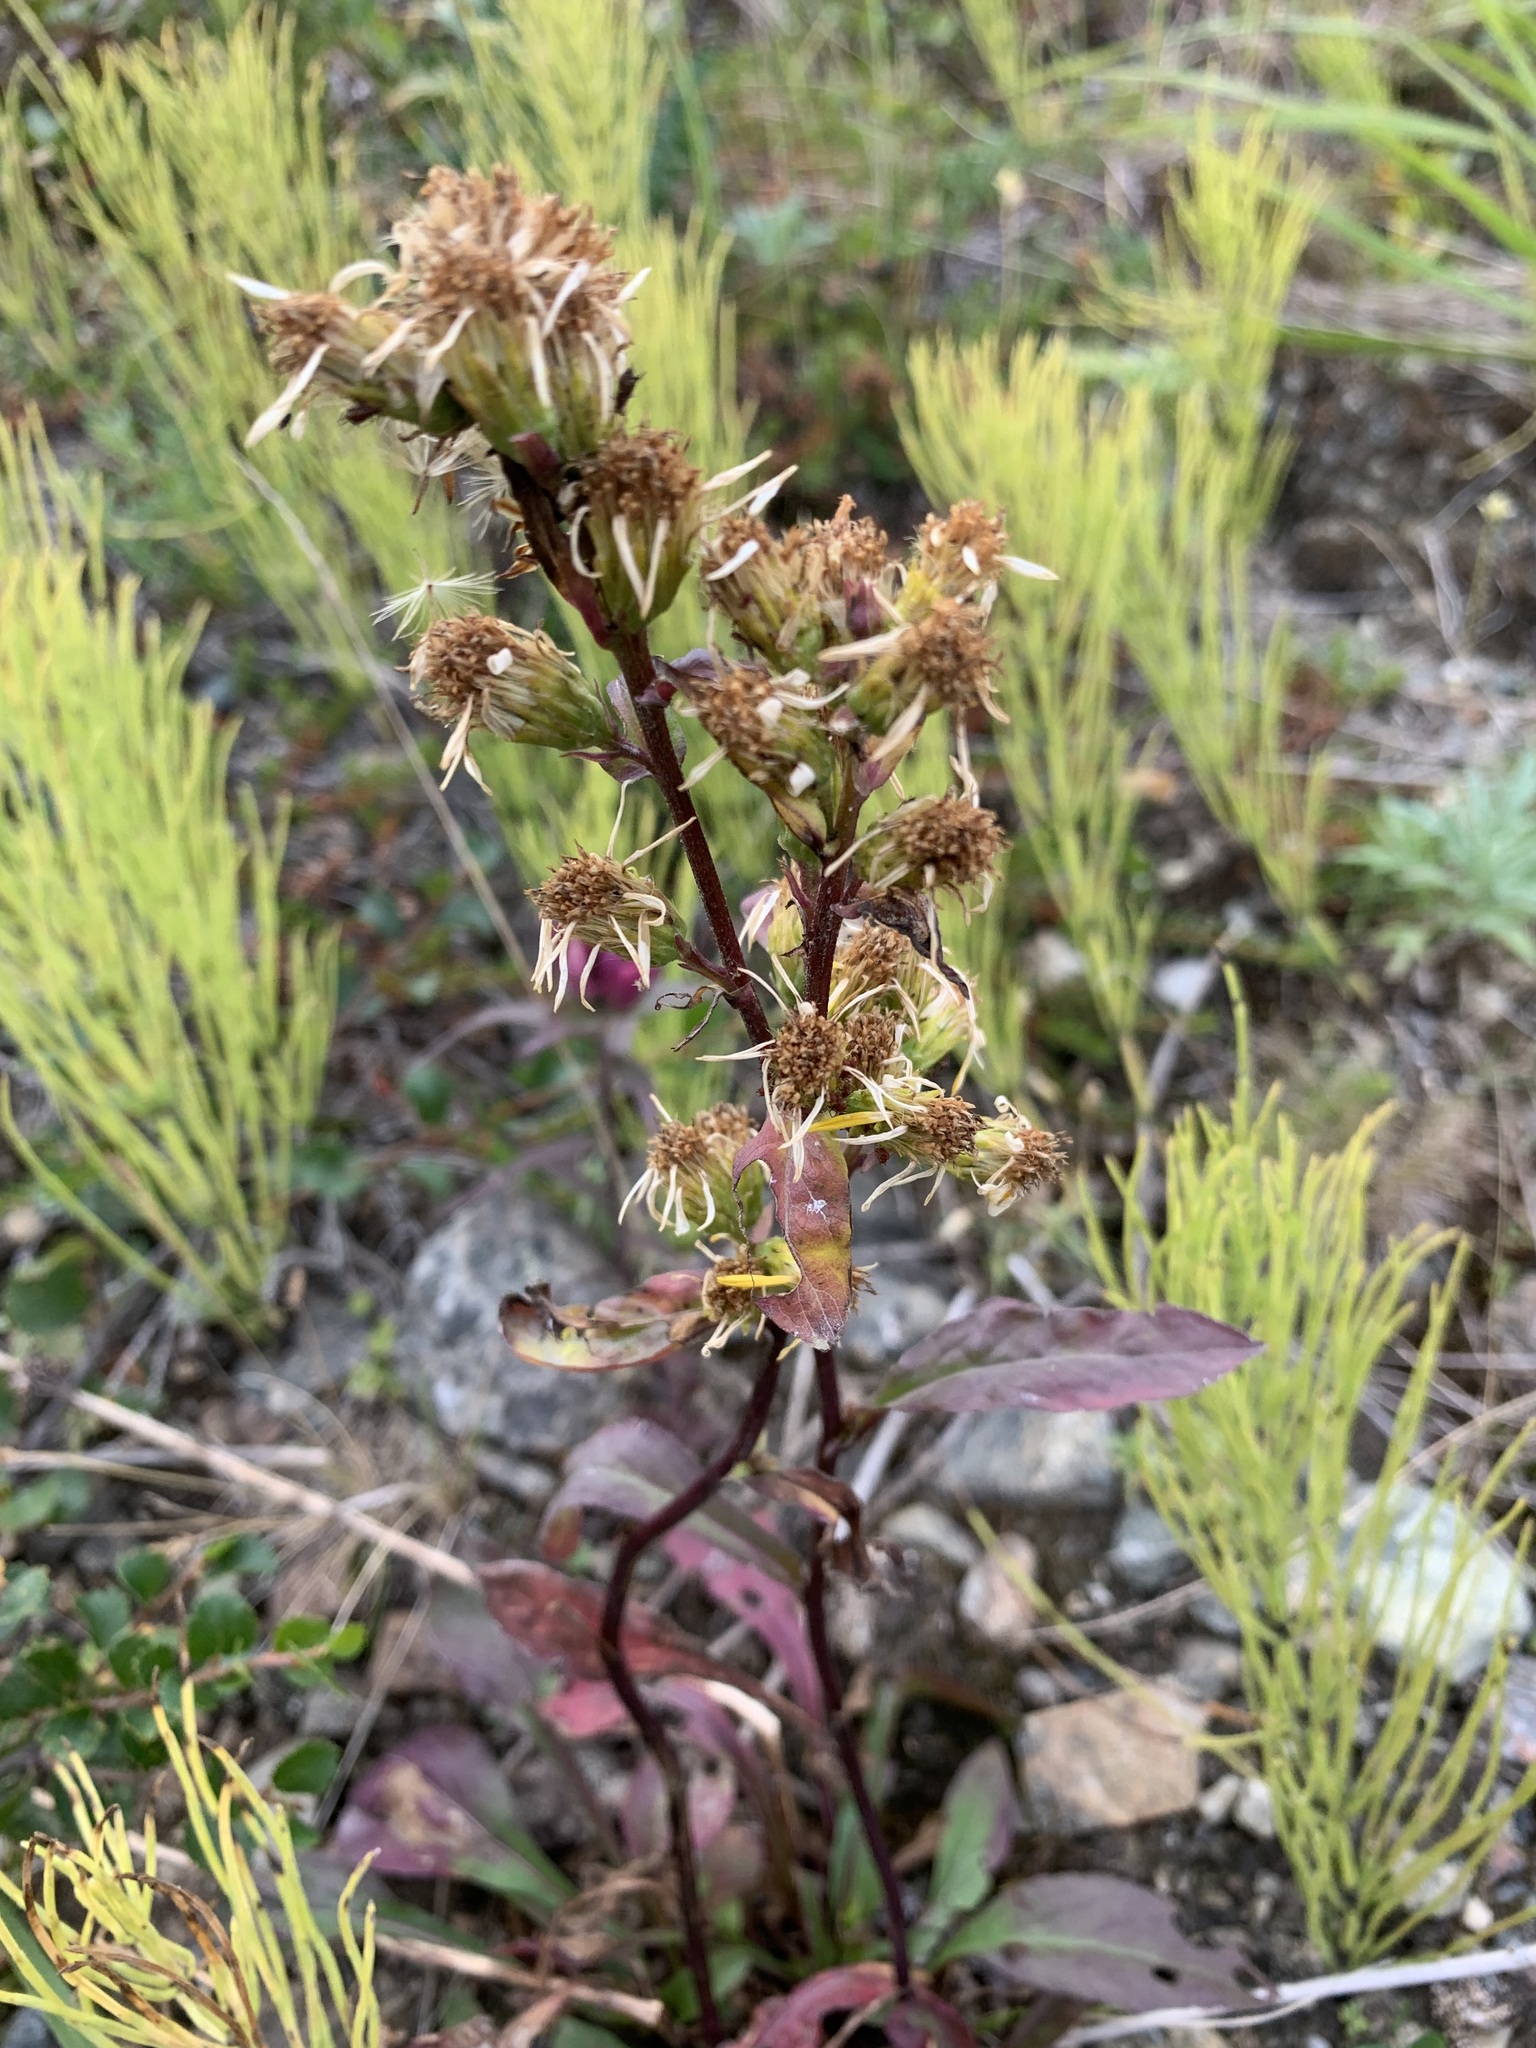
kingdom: Plantae
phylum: Tracheophyta
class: Magnoliopsida
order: Asterales
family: Asteraceae
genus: Solidago
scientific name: Solidago virgaurea
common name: Goldenrod
